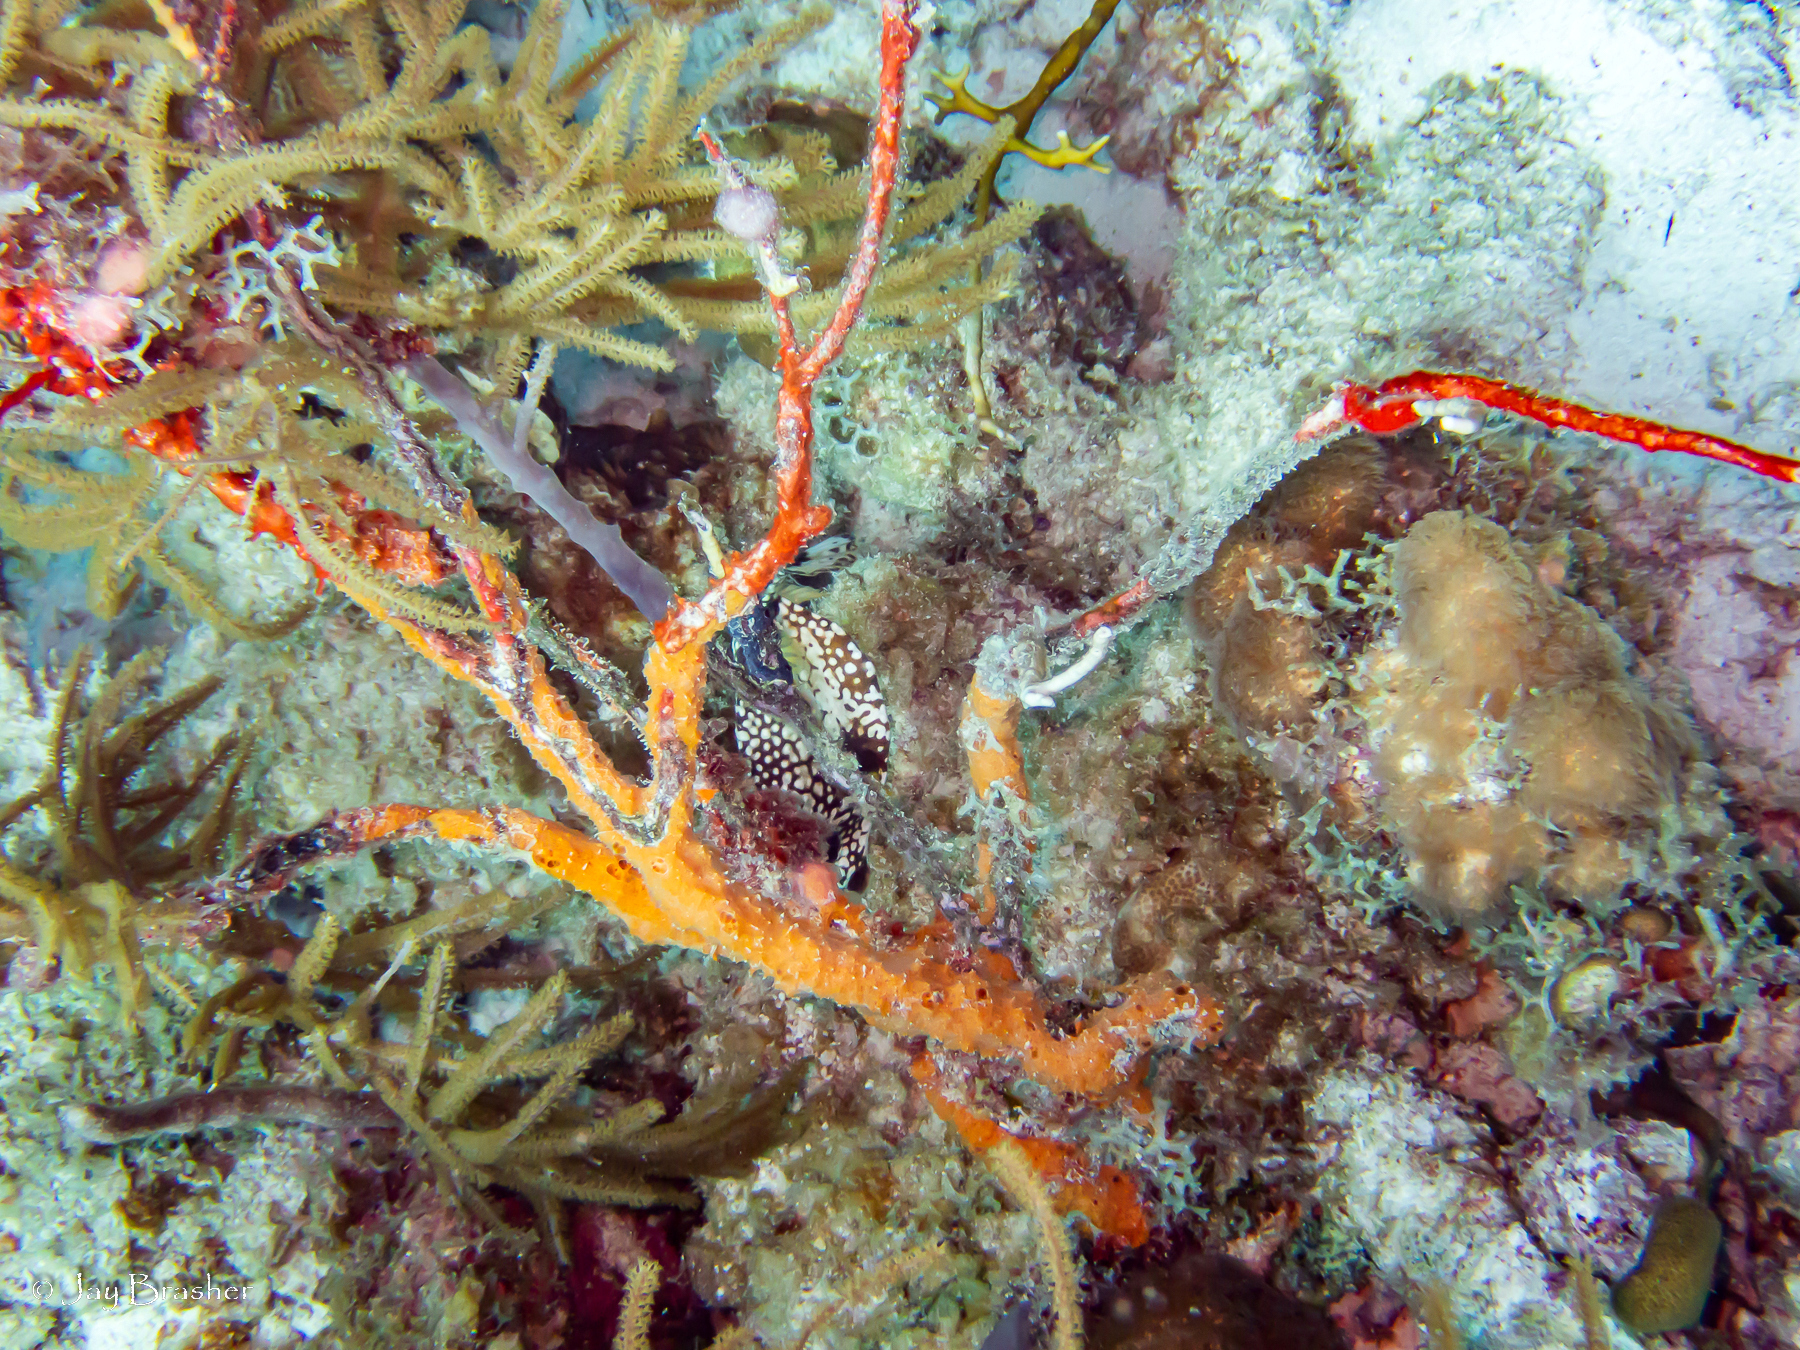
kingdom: Animalia
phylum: Porifera
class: Demospongiae
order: Scopalinida
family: Scopalinidae
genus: Scopalina
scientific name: Scopalina ruetzleri
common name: Orange lumpy encrusting sponge
